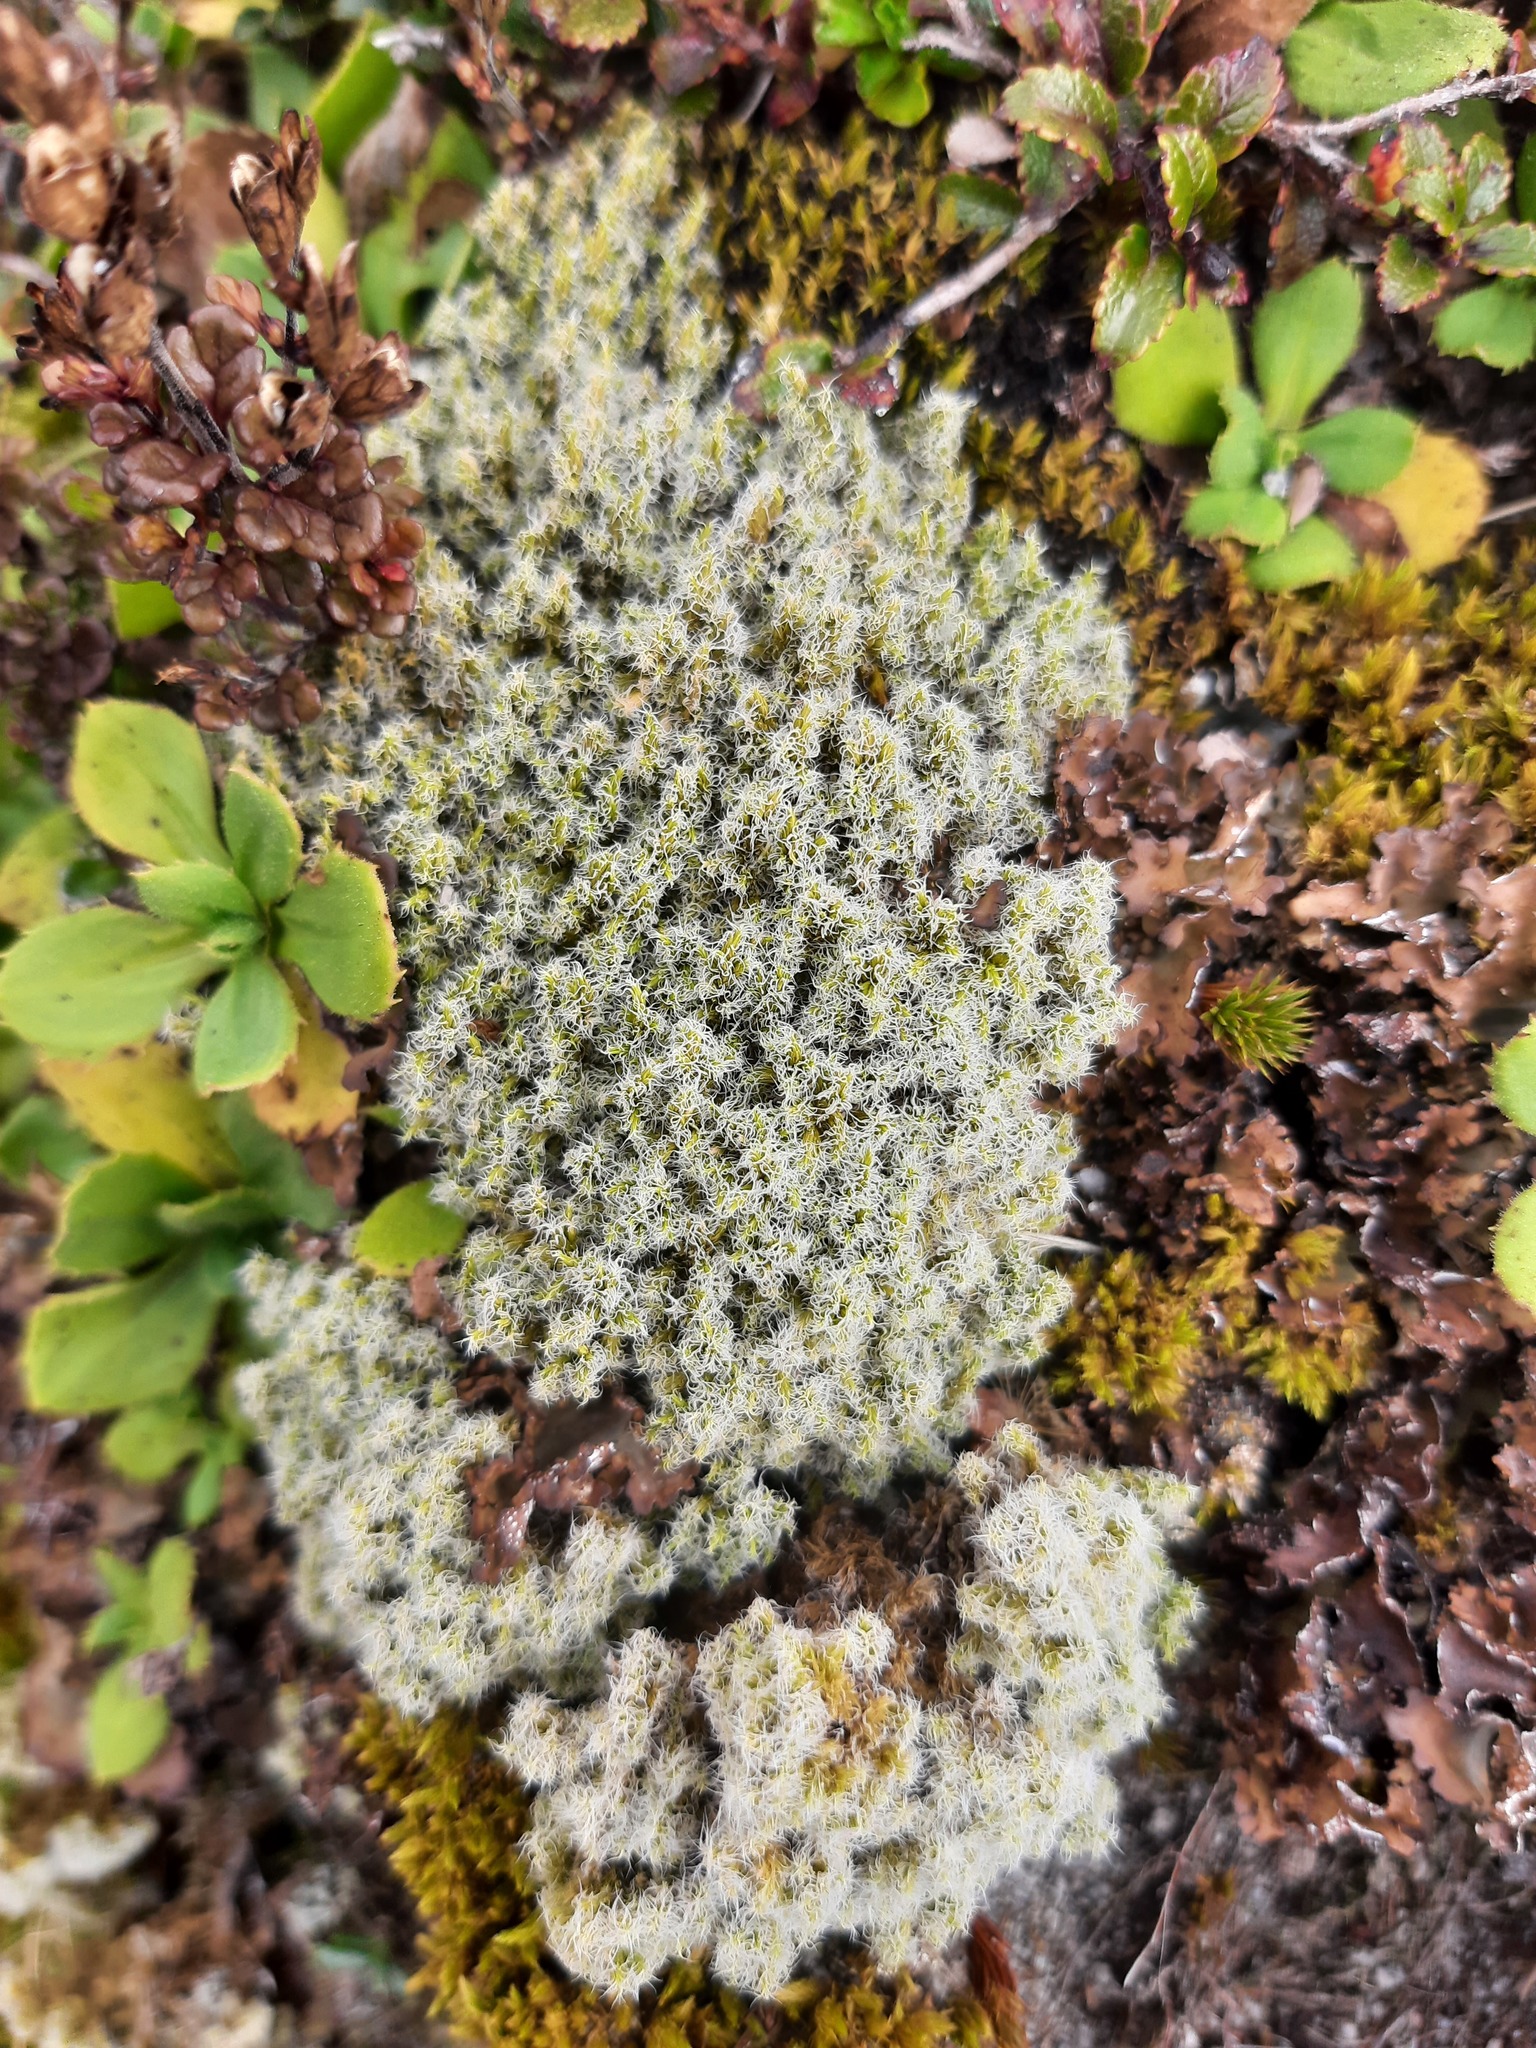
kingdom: Plantae
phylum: Bryophyta
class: Bryopsida
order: Grimmiales
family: Grimmiaceae
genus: Racomitrium
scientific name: Racomitrium lanuginosum
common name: Hoary rock moss
